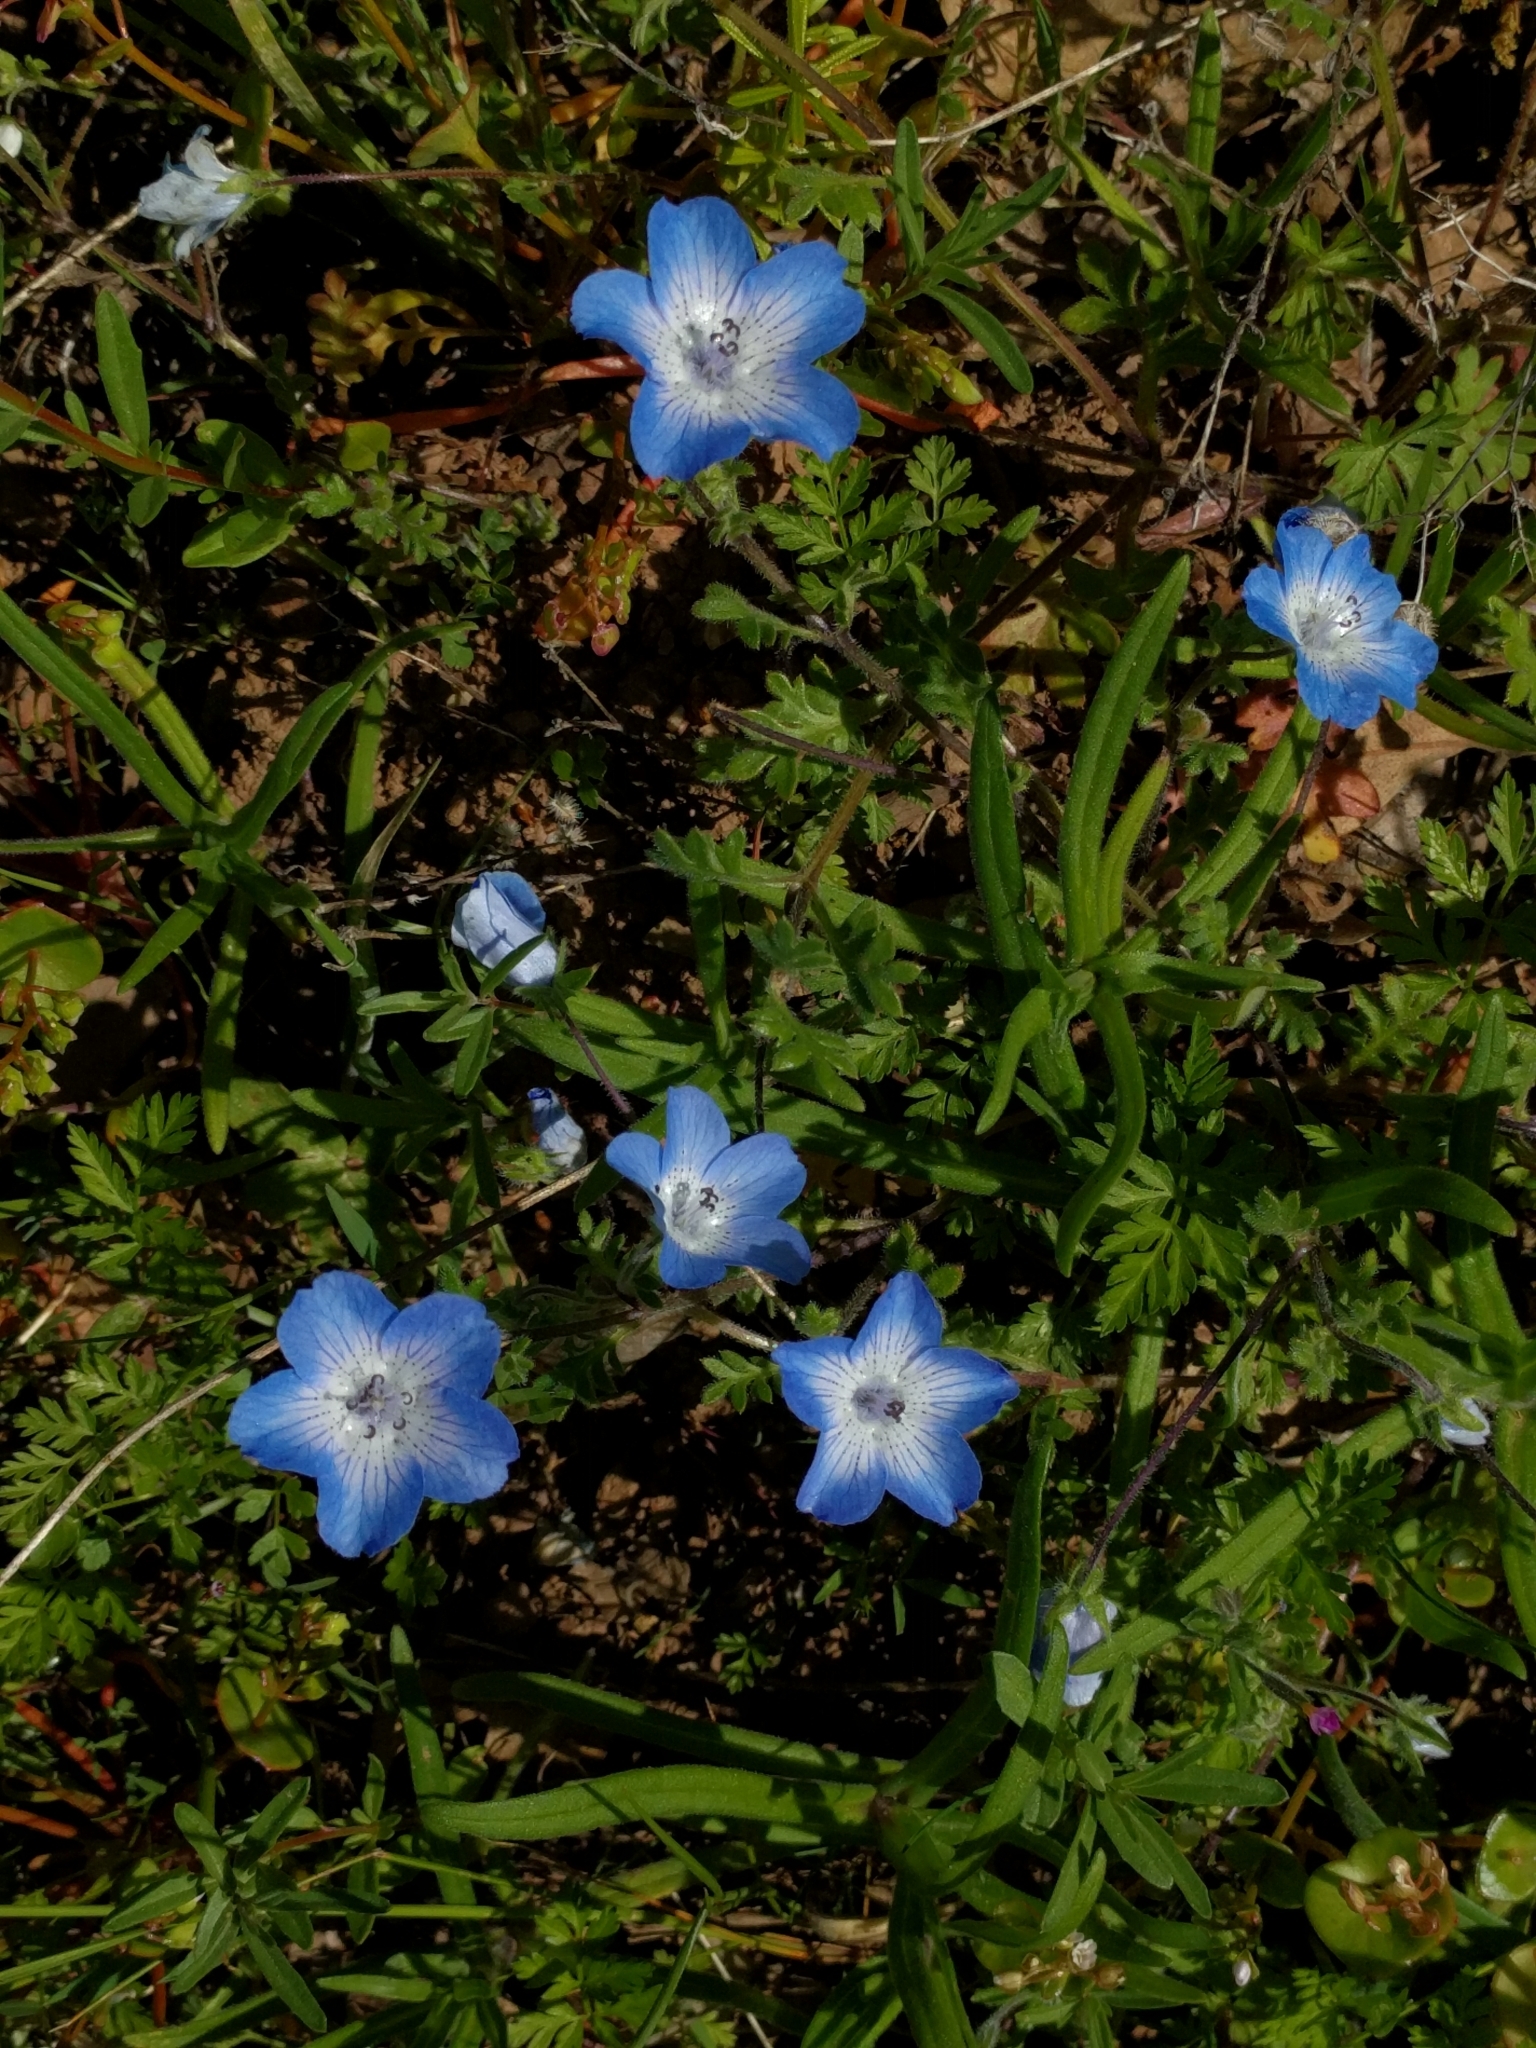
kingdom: Plantae
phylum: Tracheophyta
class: Magnoliopsida
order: Boraginales
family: Hydrophyllaceae
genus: Nemophila
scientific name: Nemophila menziesii
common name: Baby's-blue-eyes
